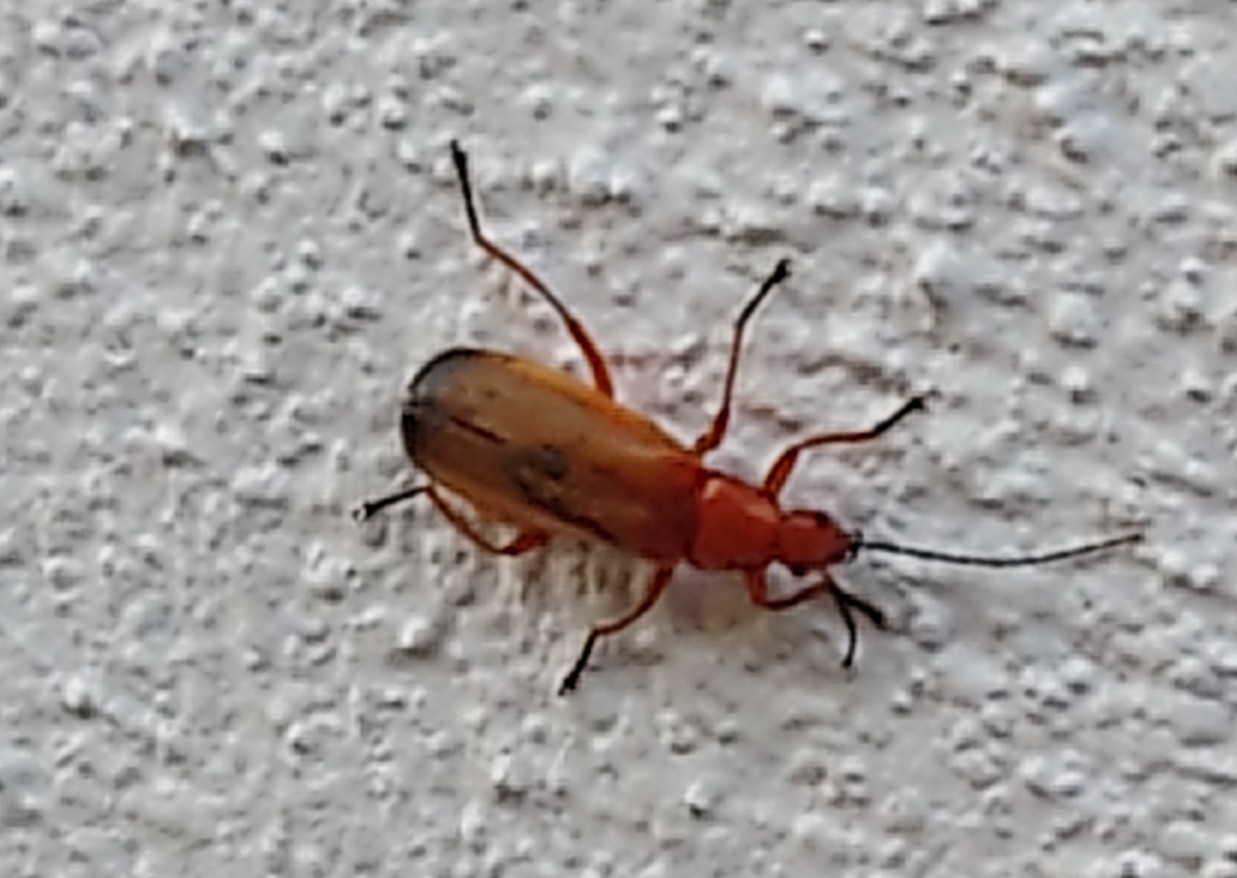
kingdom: Animalia
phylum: Arthropoda
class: Insecta
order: Coleoptera
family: Cantharidae
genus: Rhagonycha
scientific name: Rhagonycha fulva
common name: Common red soldier beetle
